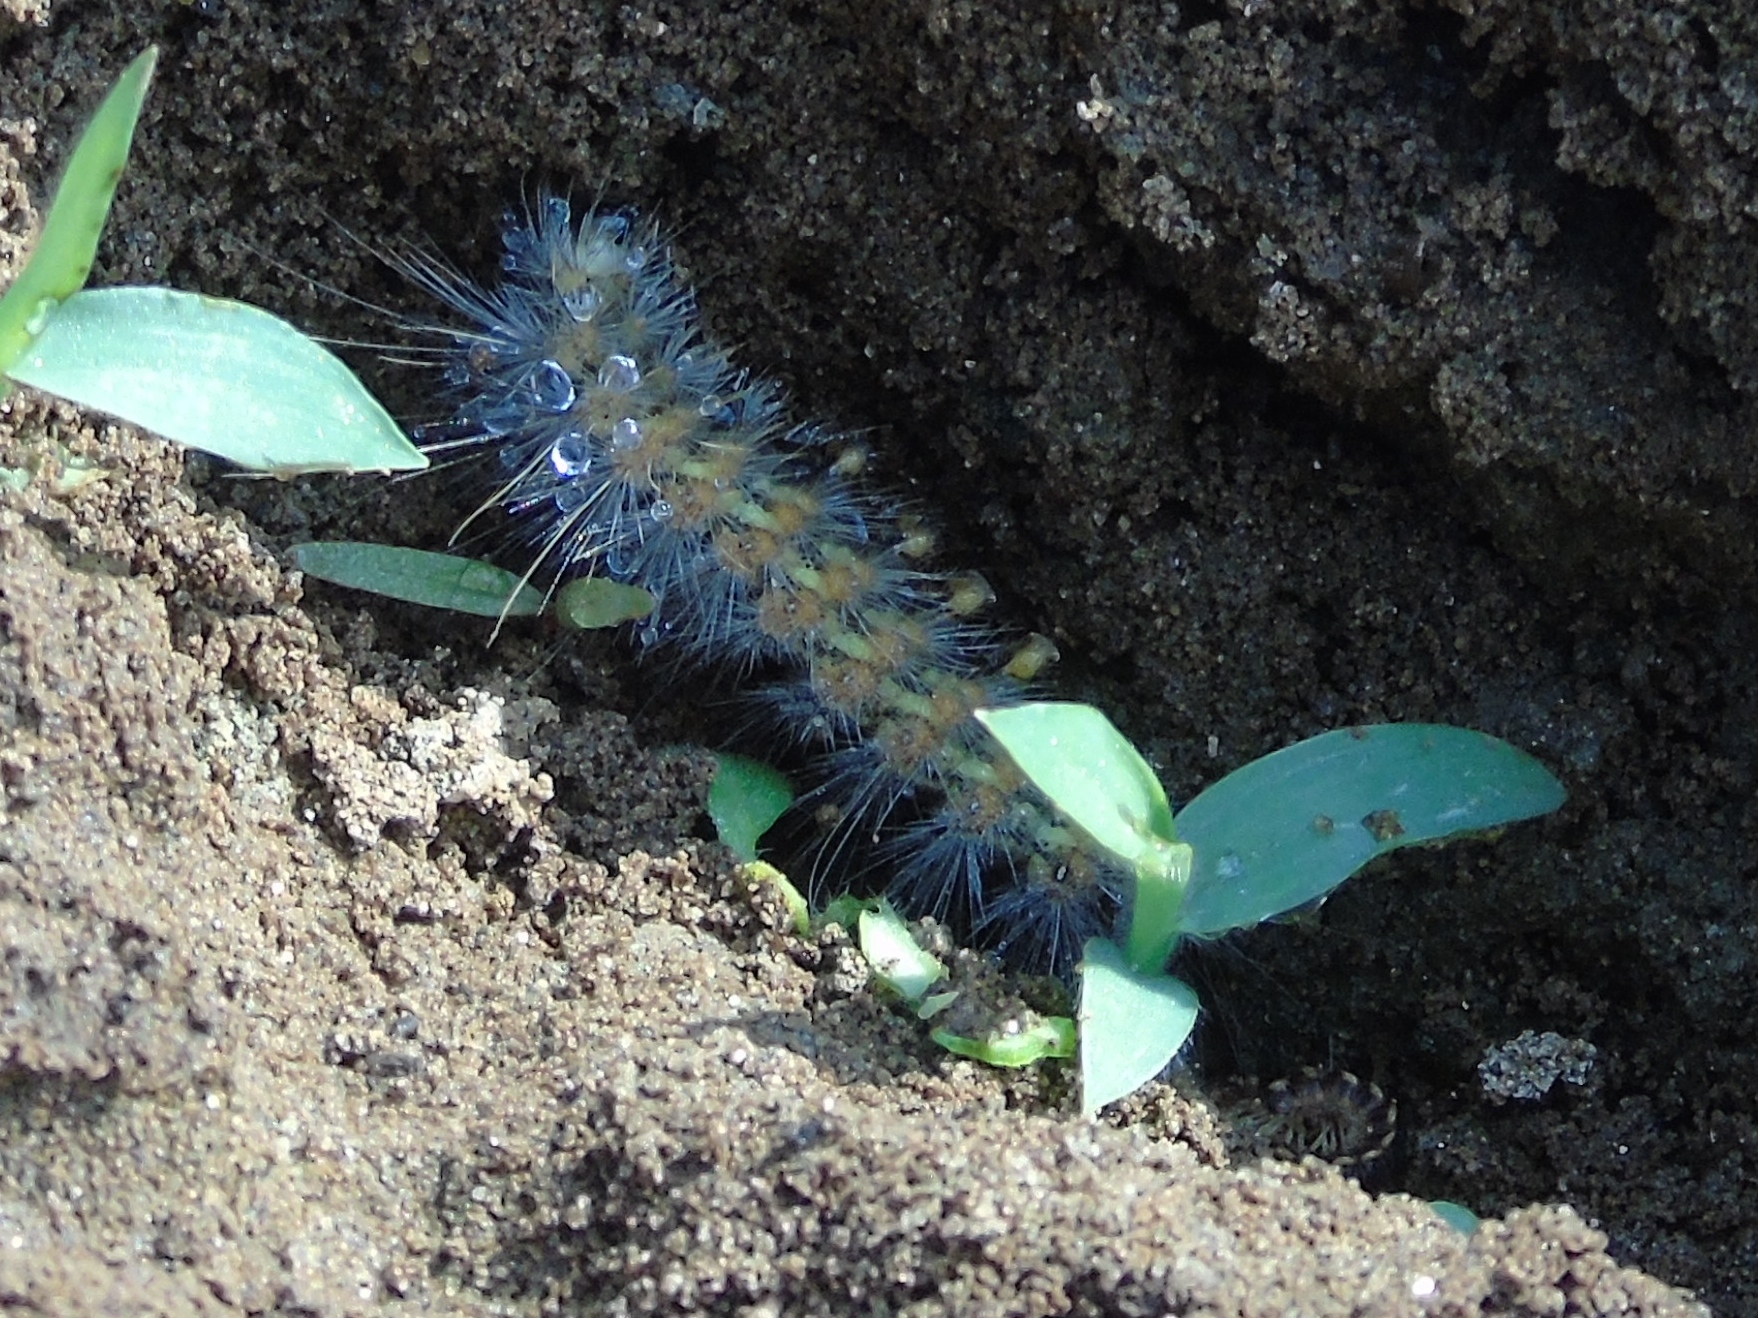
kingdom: Animalia
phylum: Arthropoda
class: Insecta
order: Lepidoptera
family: Erebidae
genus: Estigmene
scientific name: Estigmene acrea
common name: Salt marsh moth
